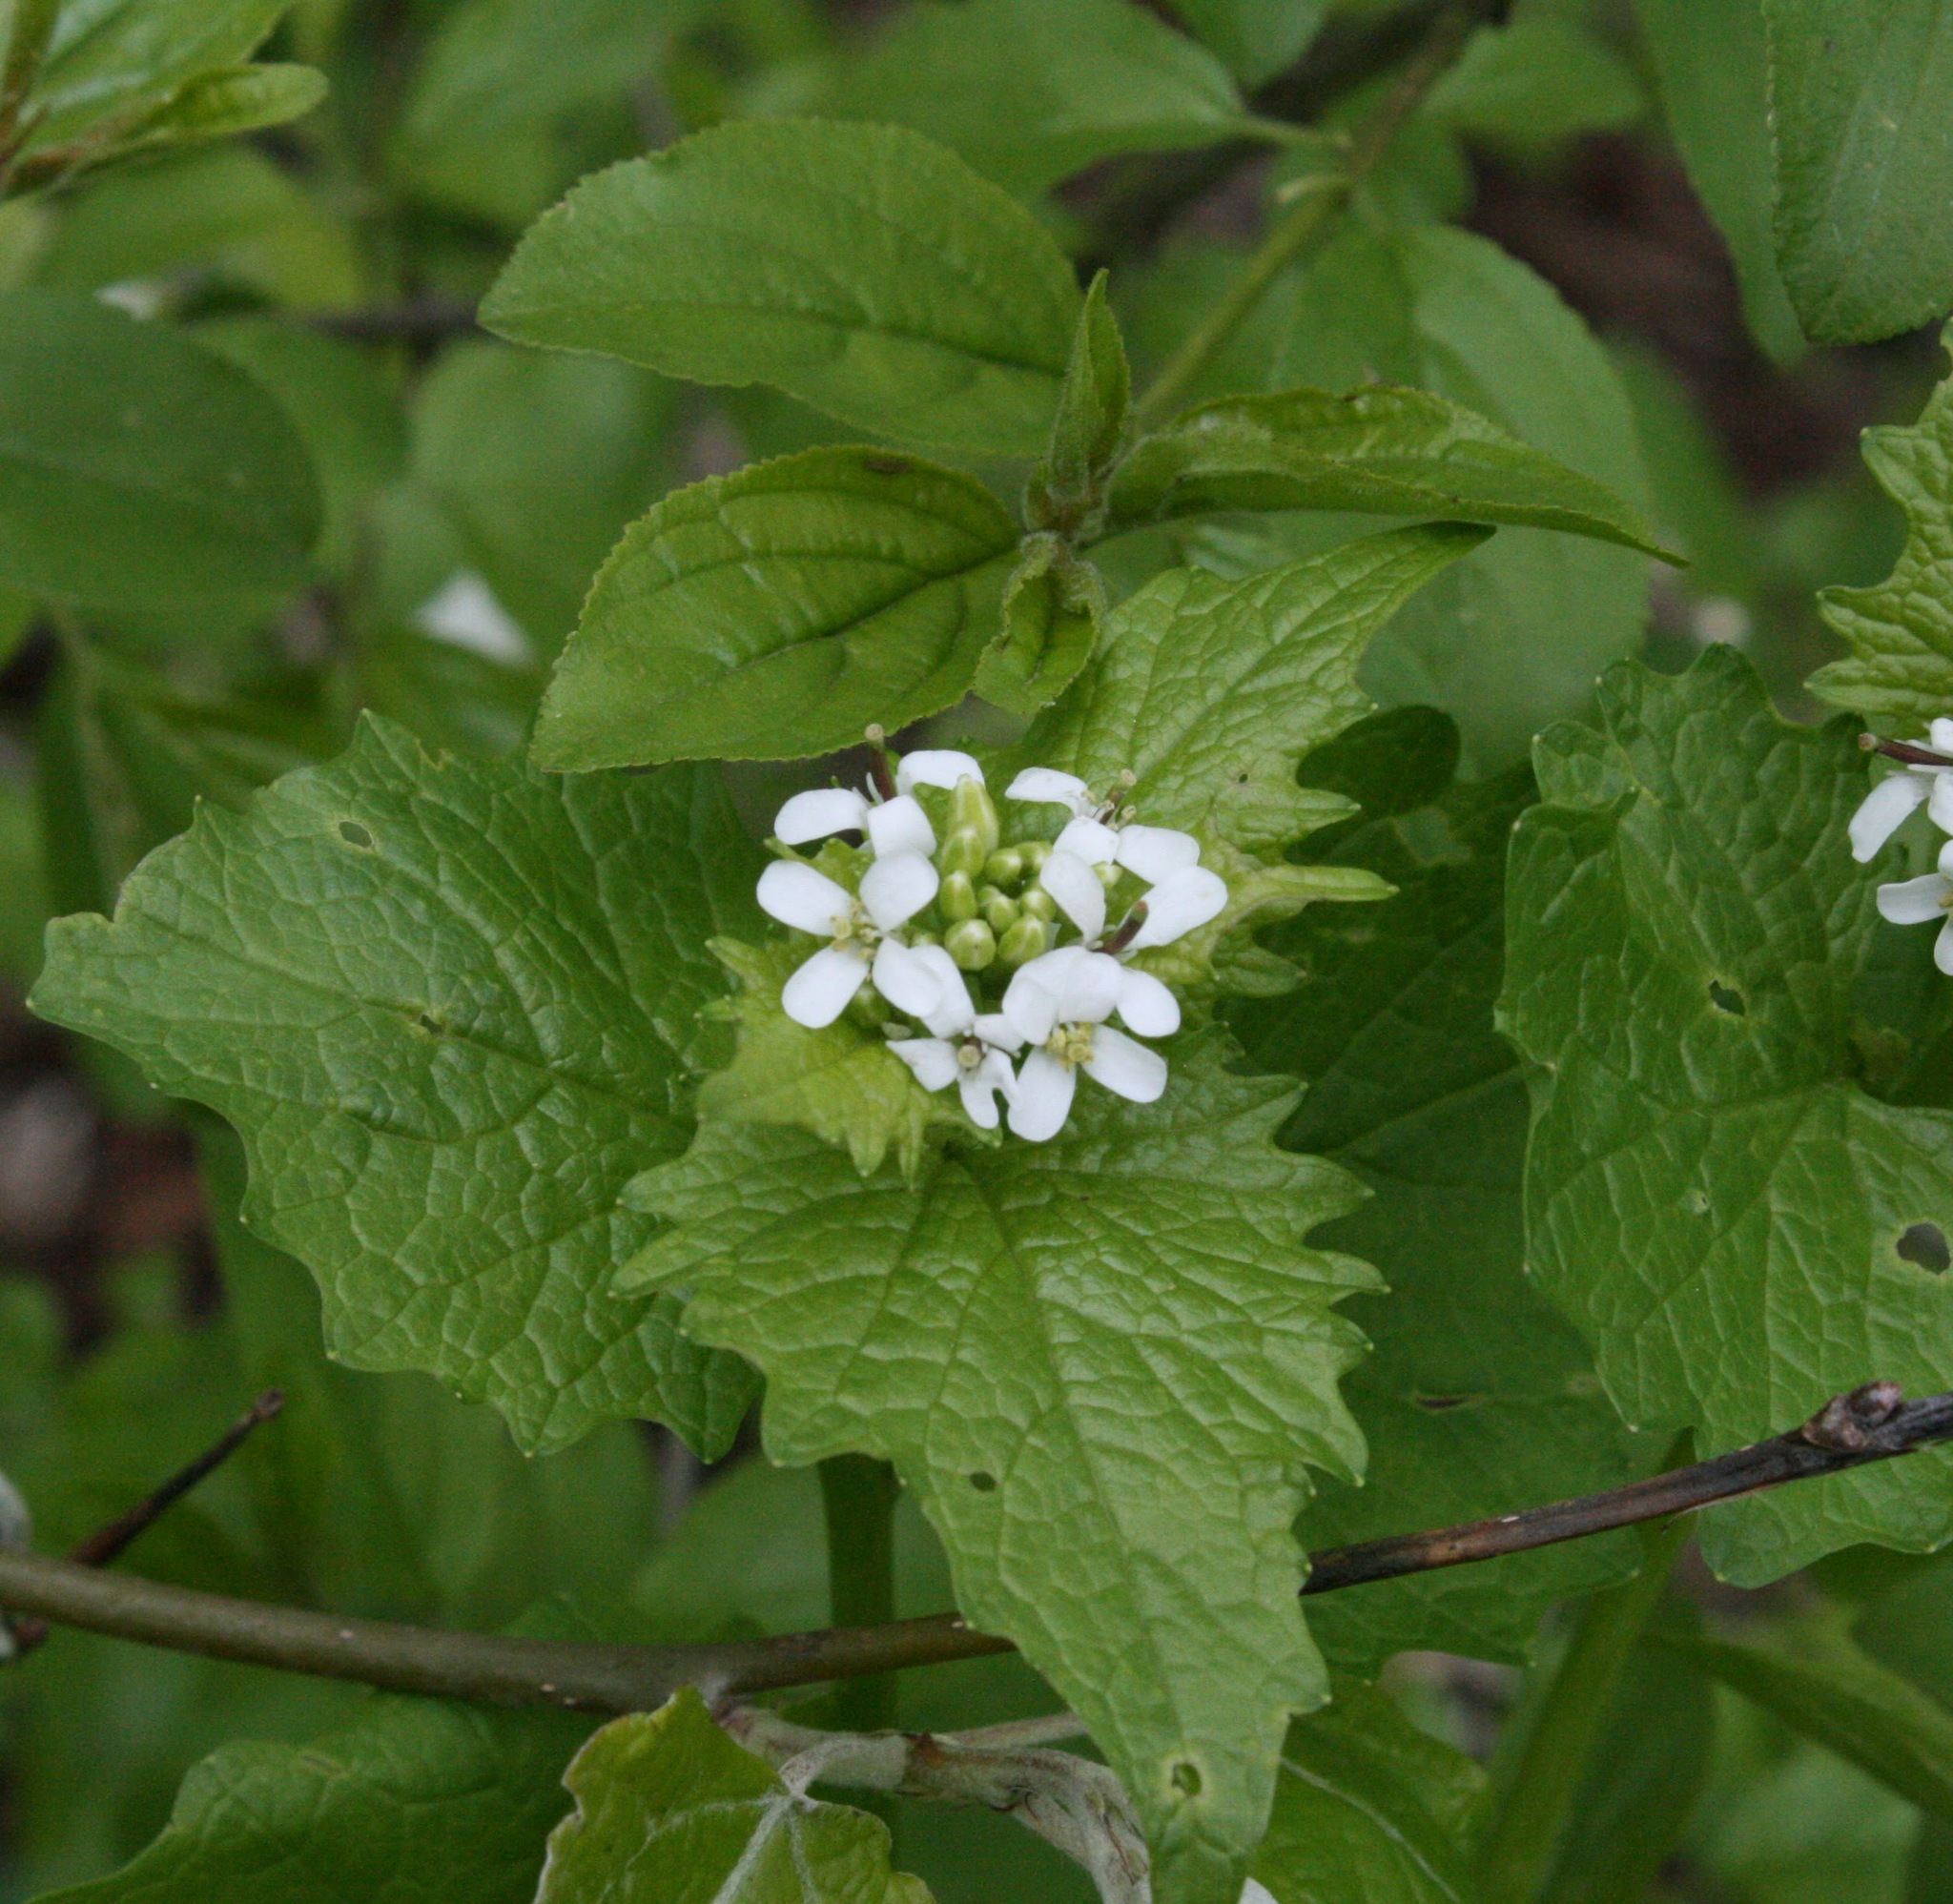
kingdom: Plantae
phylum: Tracheophyta
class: Magnoliopsida
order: Brassicales
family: Brassicaceae
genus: Alliaria
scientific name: Alliaria petiolata
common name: Garlic mustard
